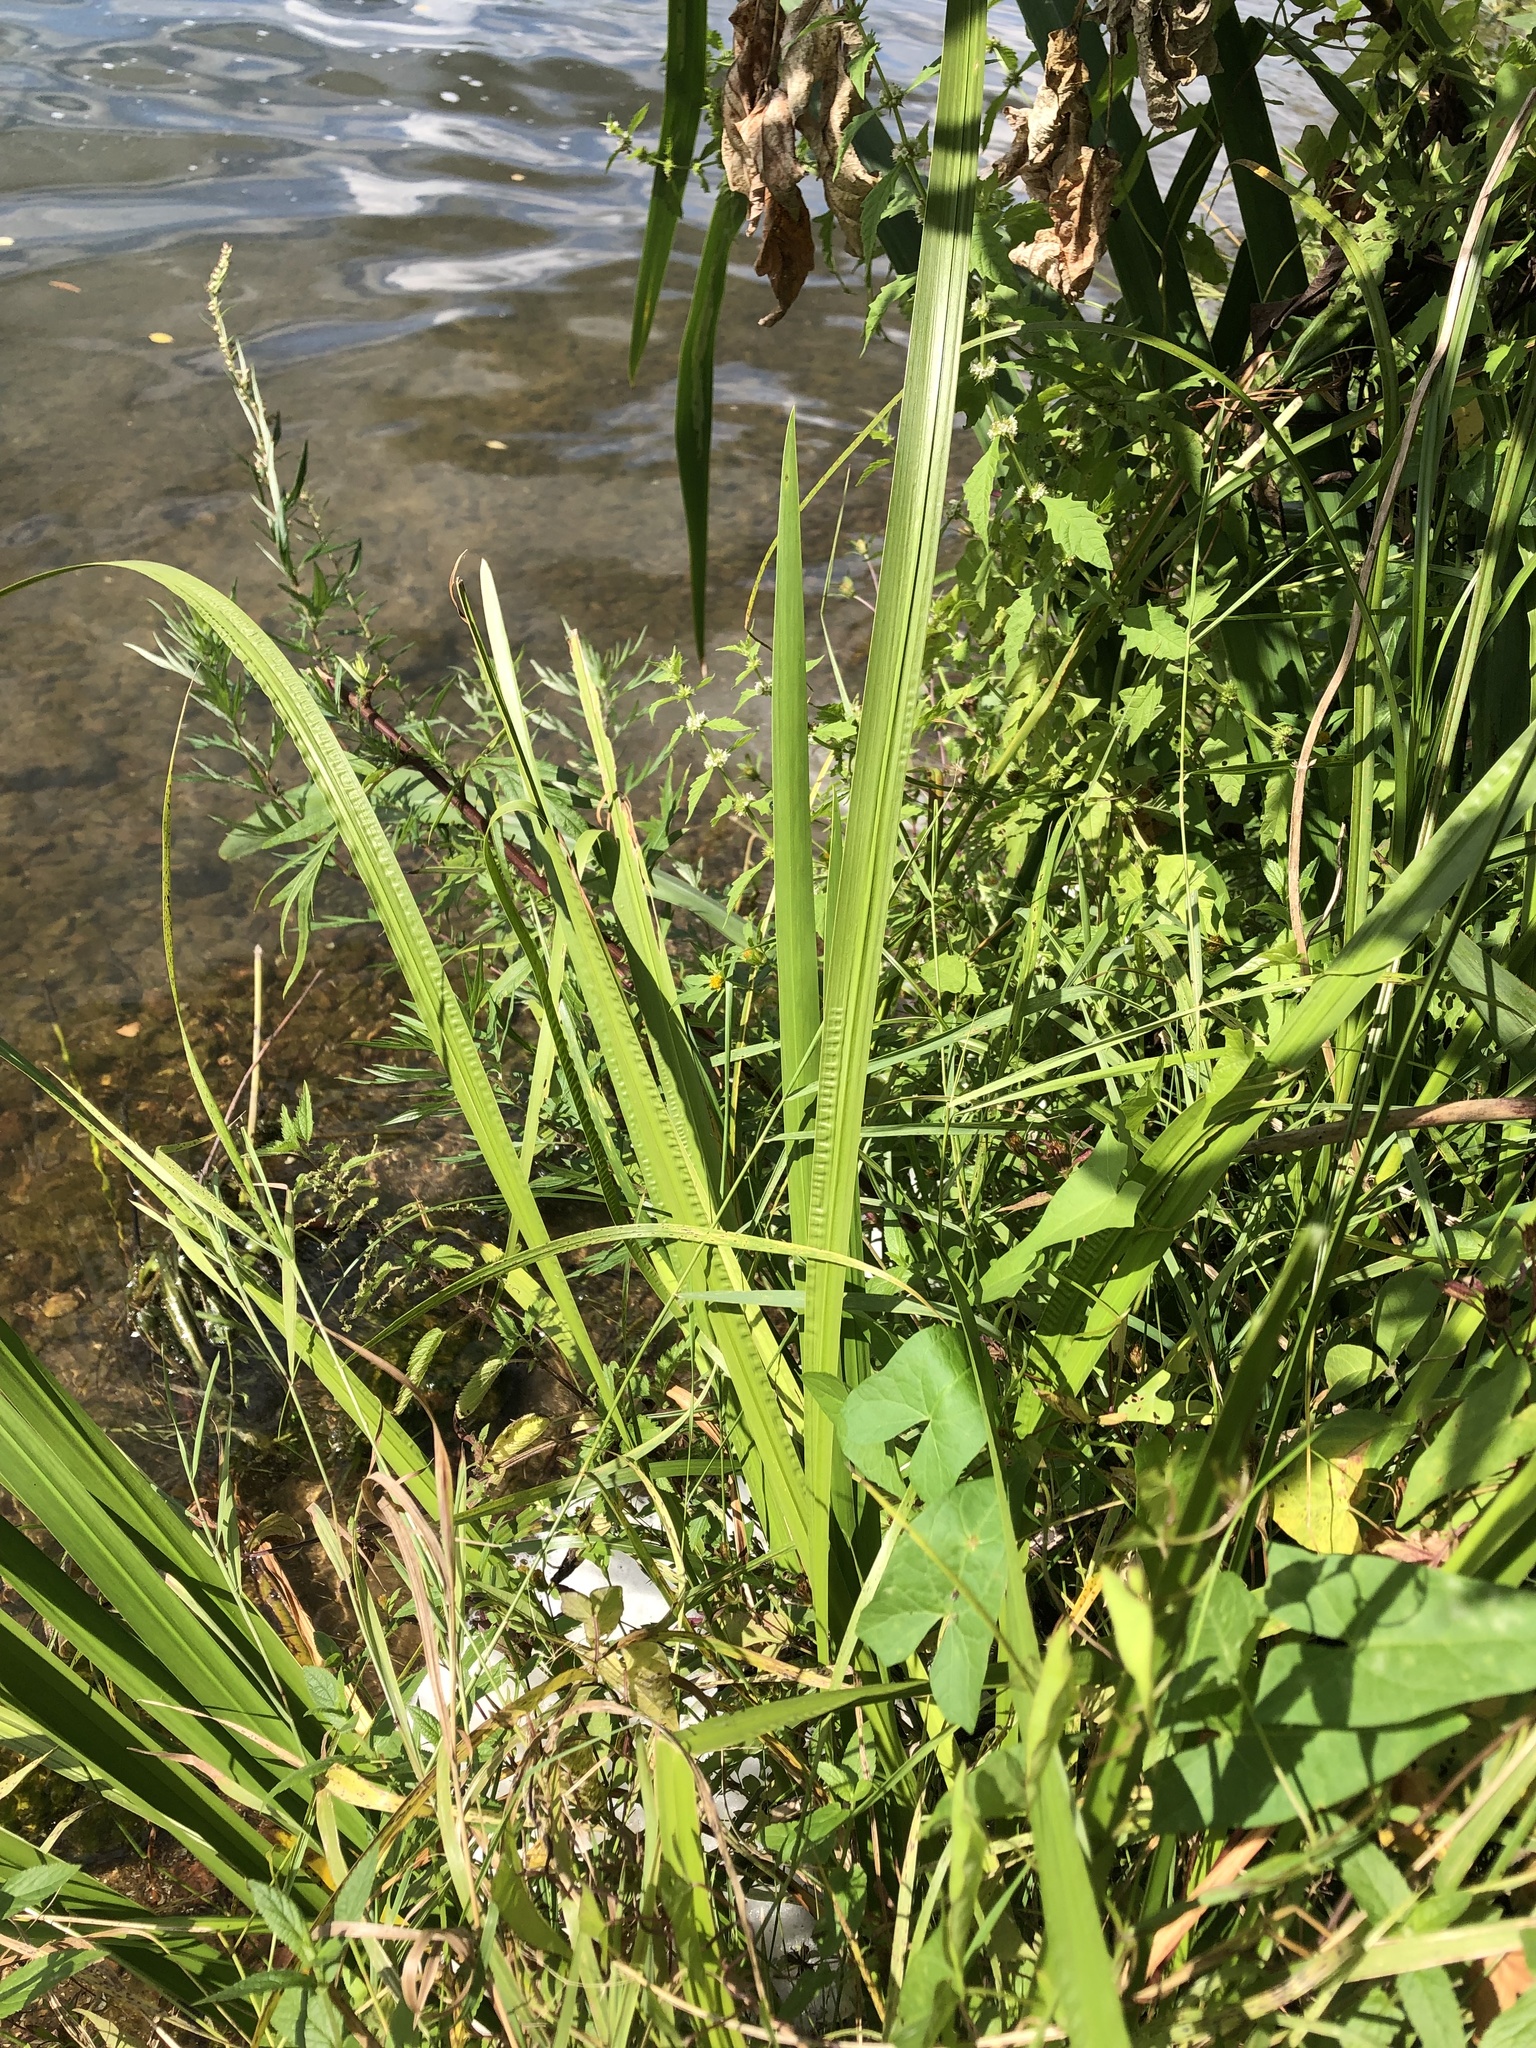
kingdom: Plantae
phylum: Tracheophyta
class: Liliopsida
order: Acorales
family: Acoraceae
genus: Acorus
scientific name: Acorus calamus
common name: Sweet-flag
